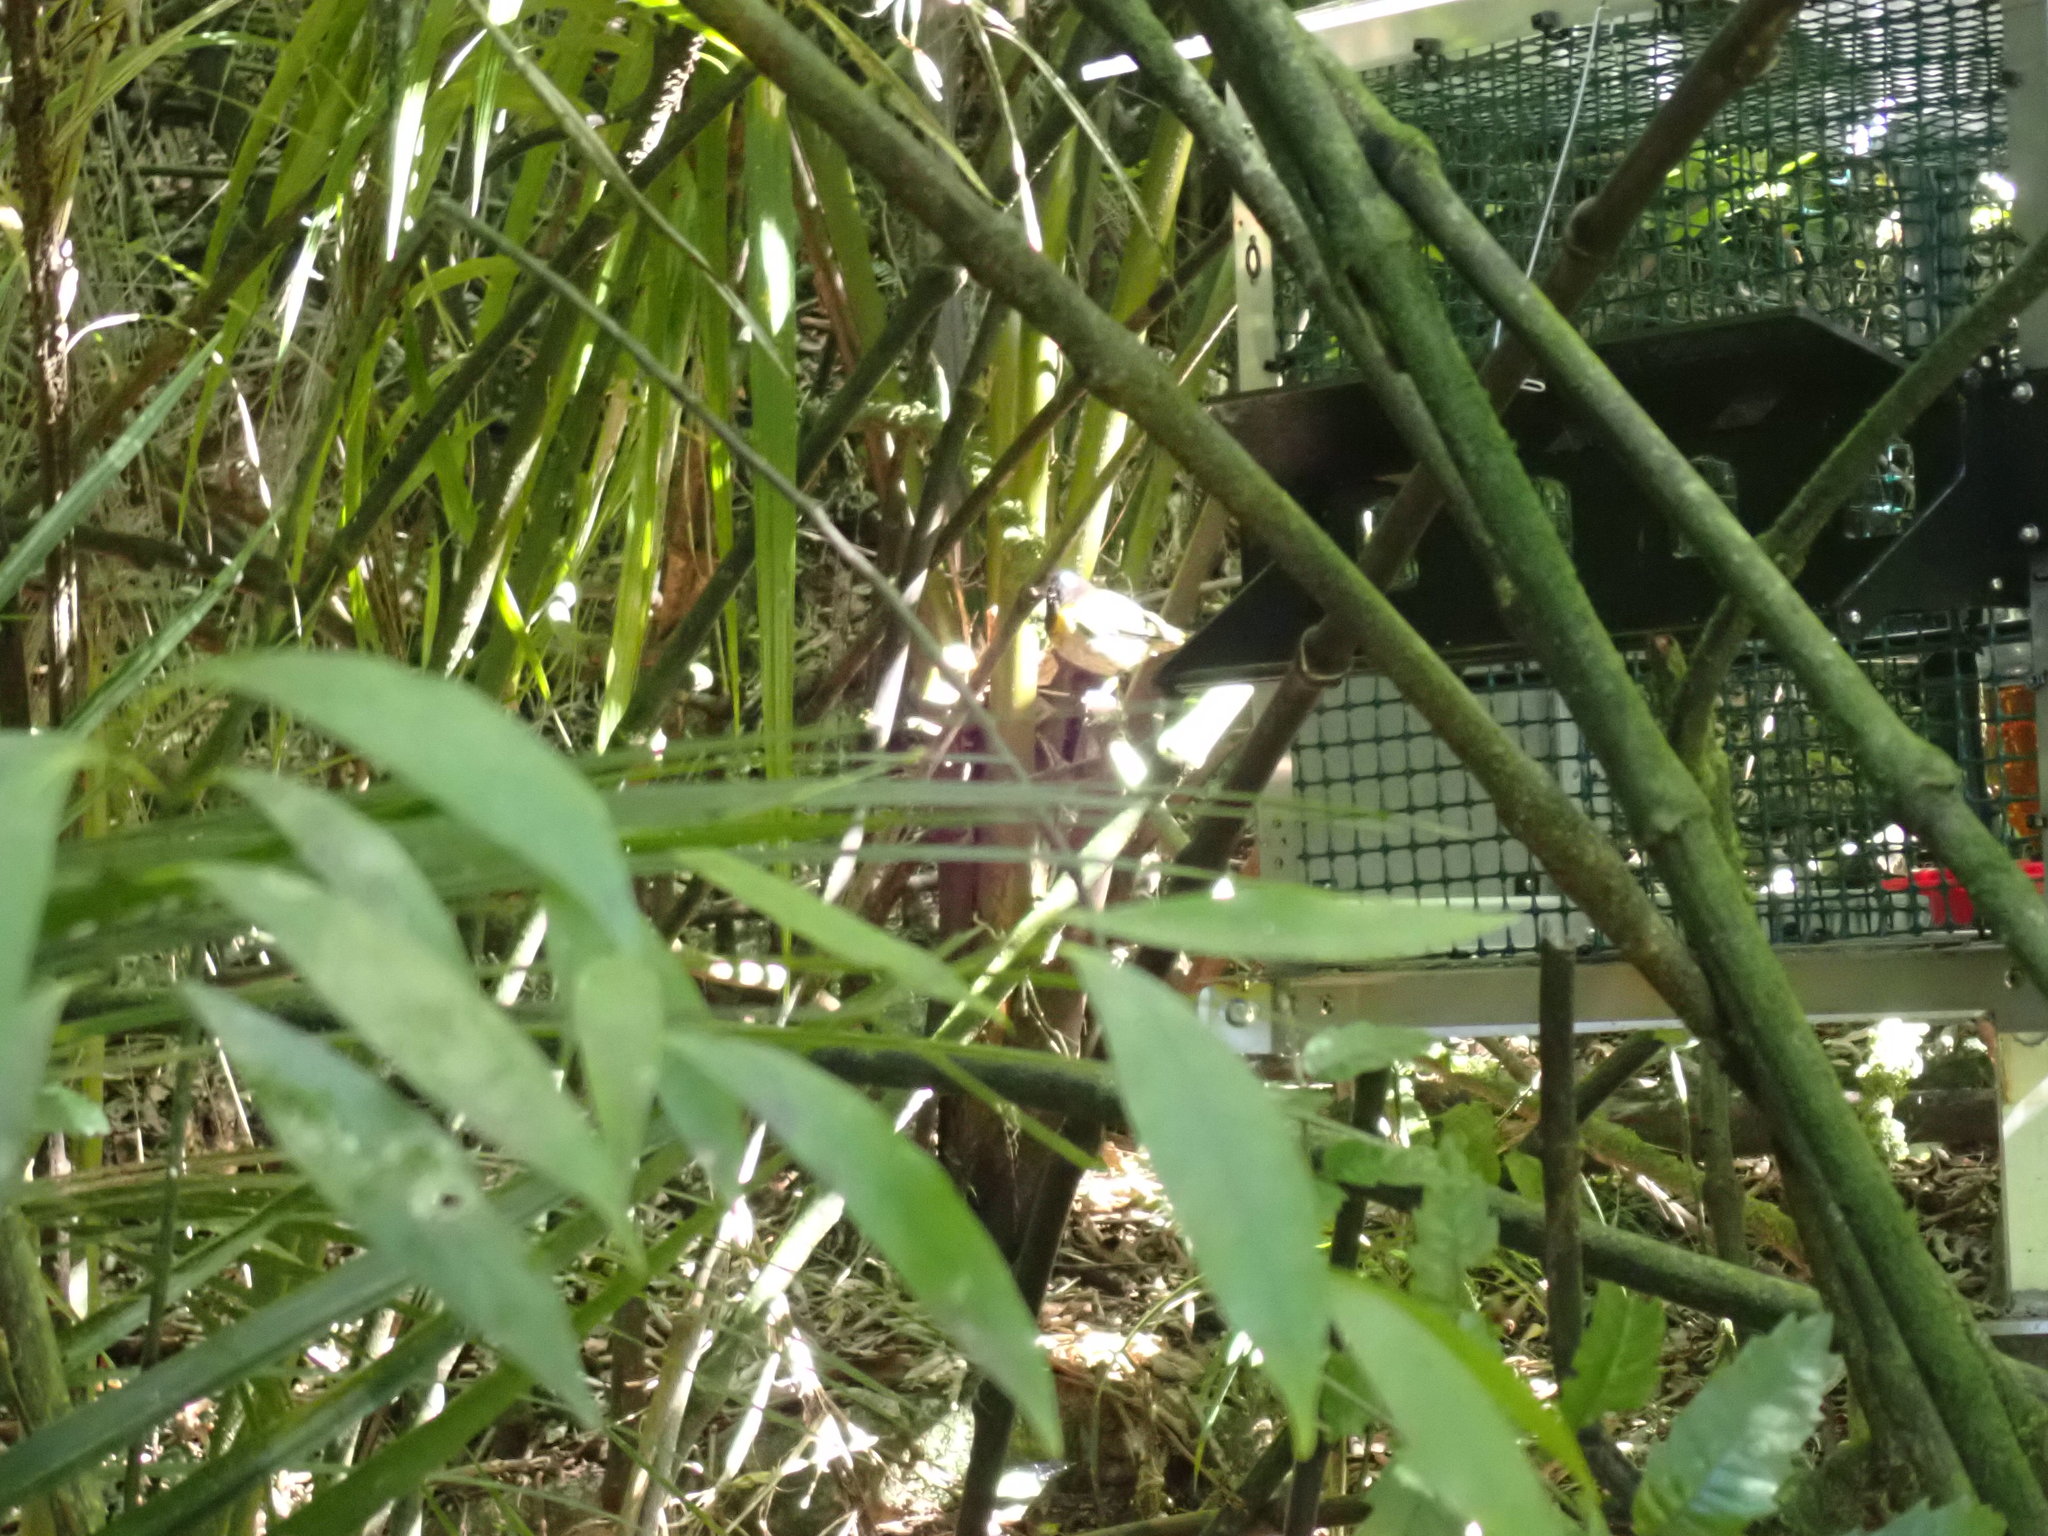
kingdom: Animalia
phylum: Chordata
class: Aves
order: Passeriformes
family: Notiomystidae
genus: Notiomystis
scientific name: Notiomystis cincta
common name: Stitchbird
